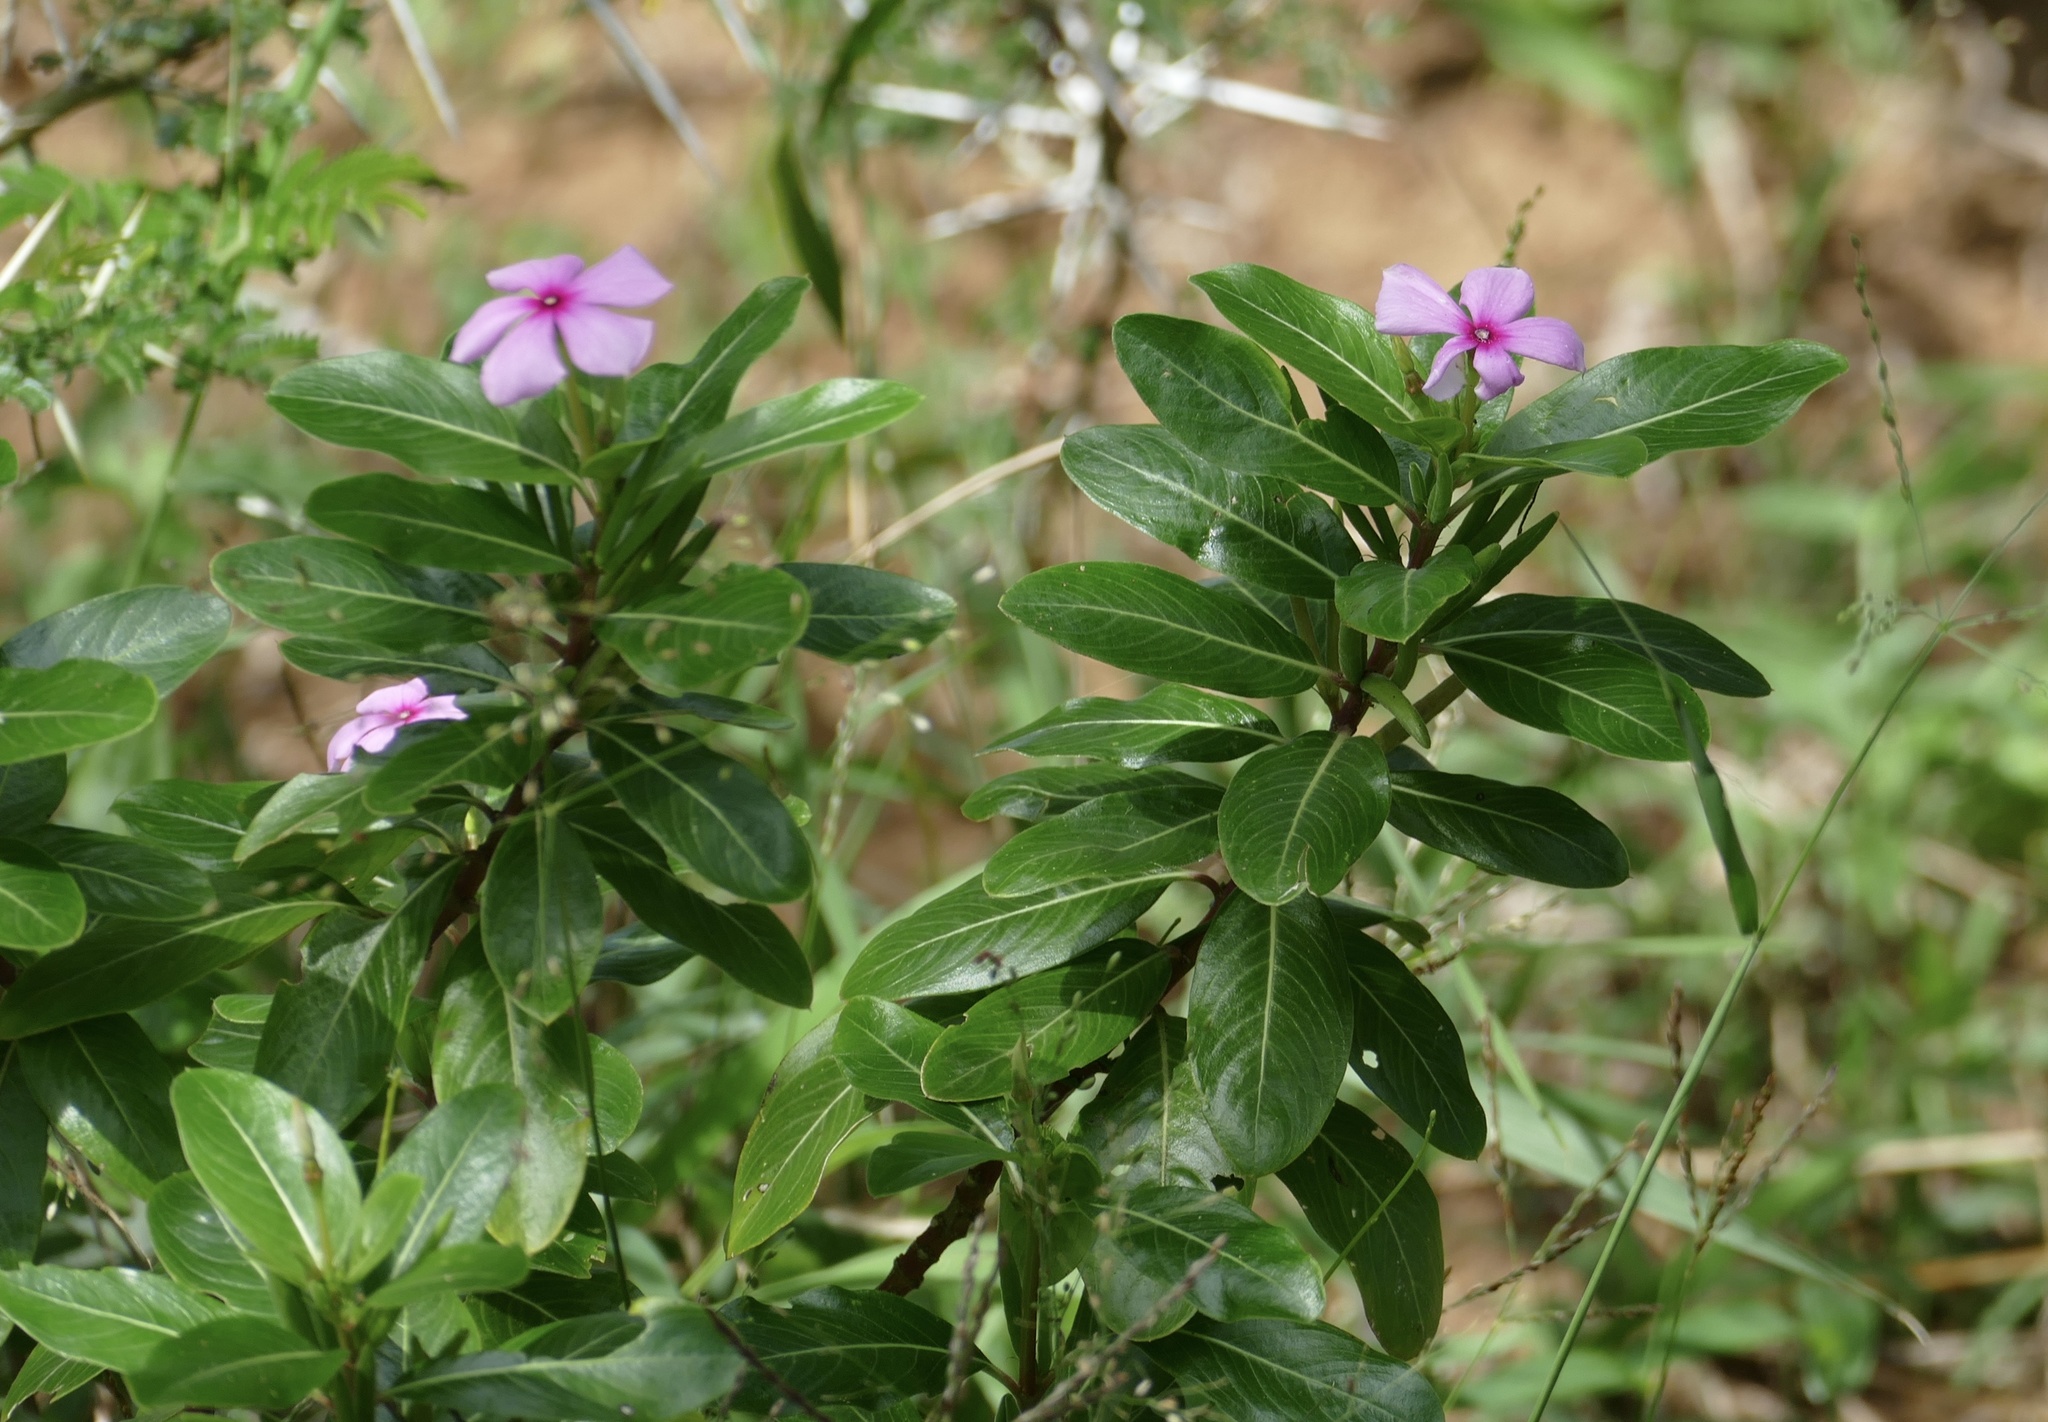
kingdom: Plantae
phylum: Tracheophyta
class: Magnoliopsida
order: Gentianales
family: Apocynaceae
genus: Catharanthus
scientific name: Catharanthus roseus
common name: Madagascar periwinkle
